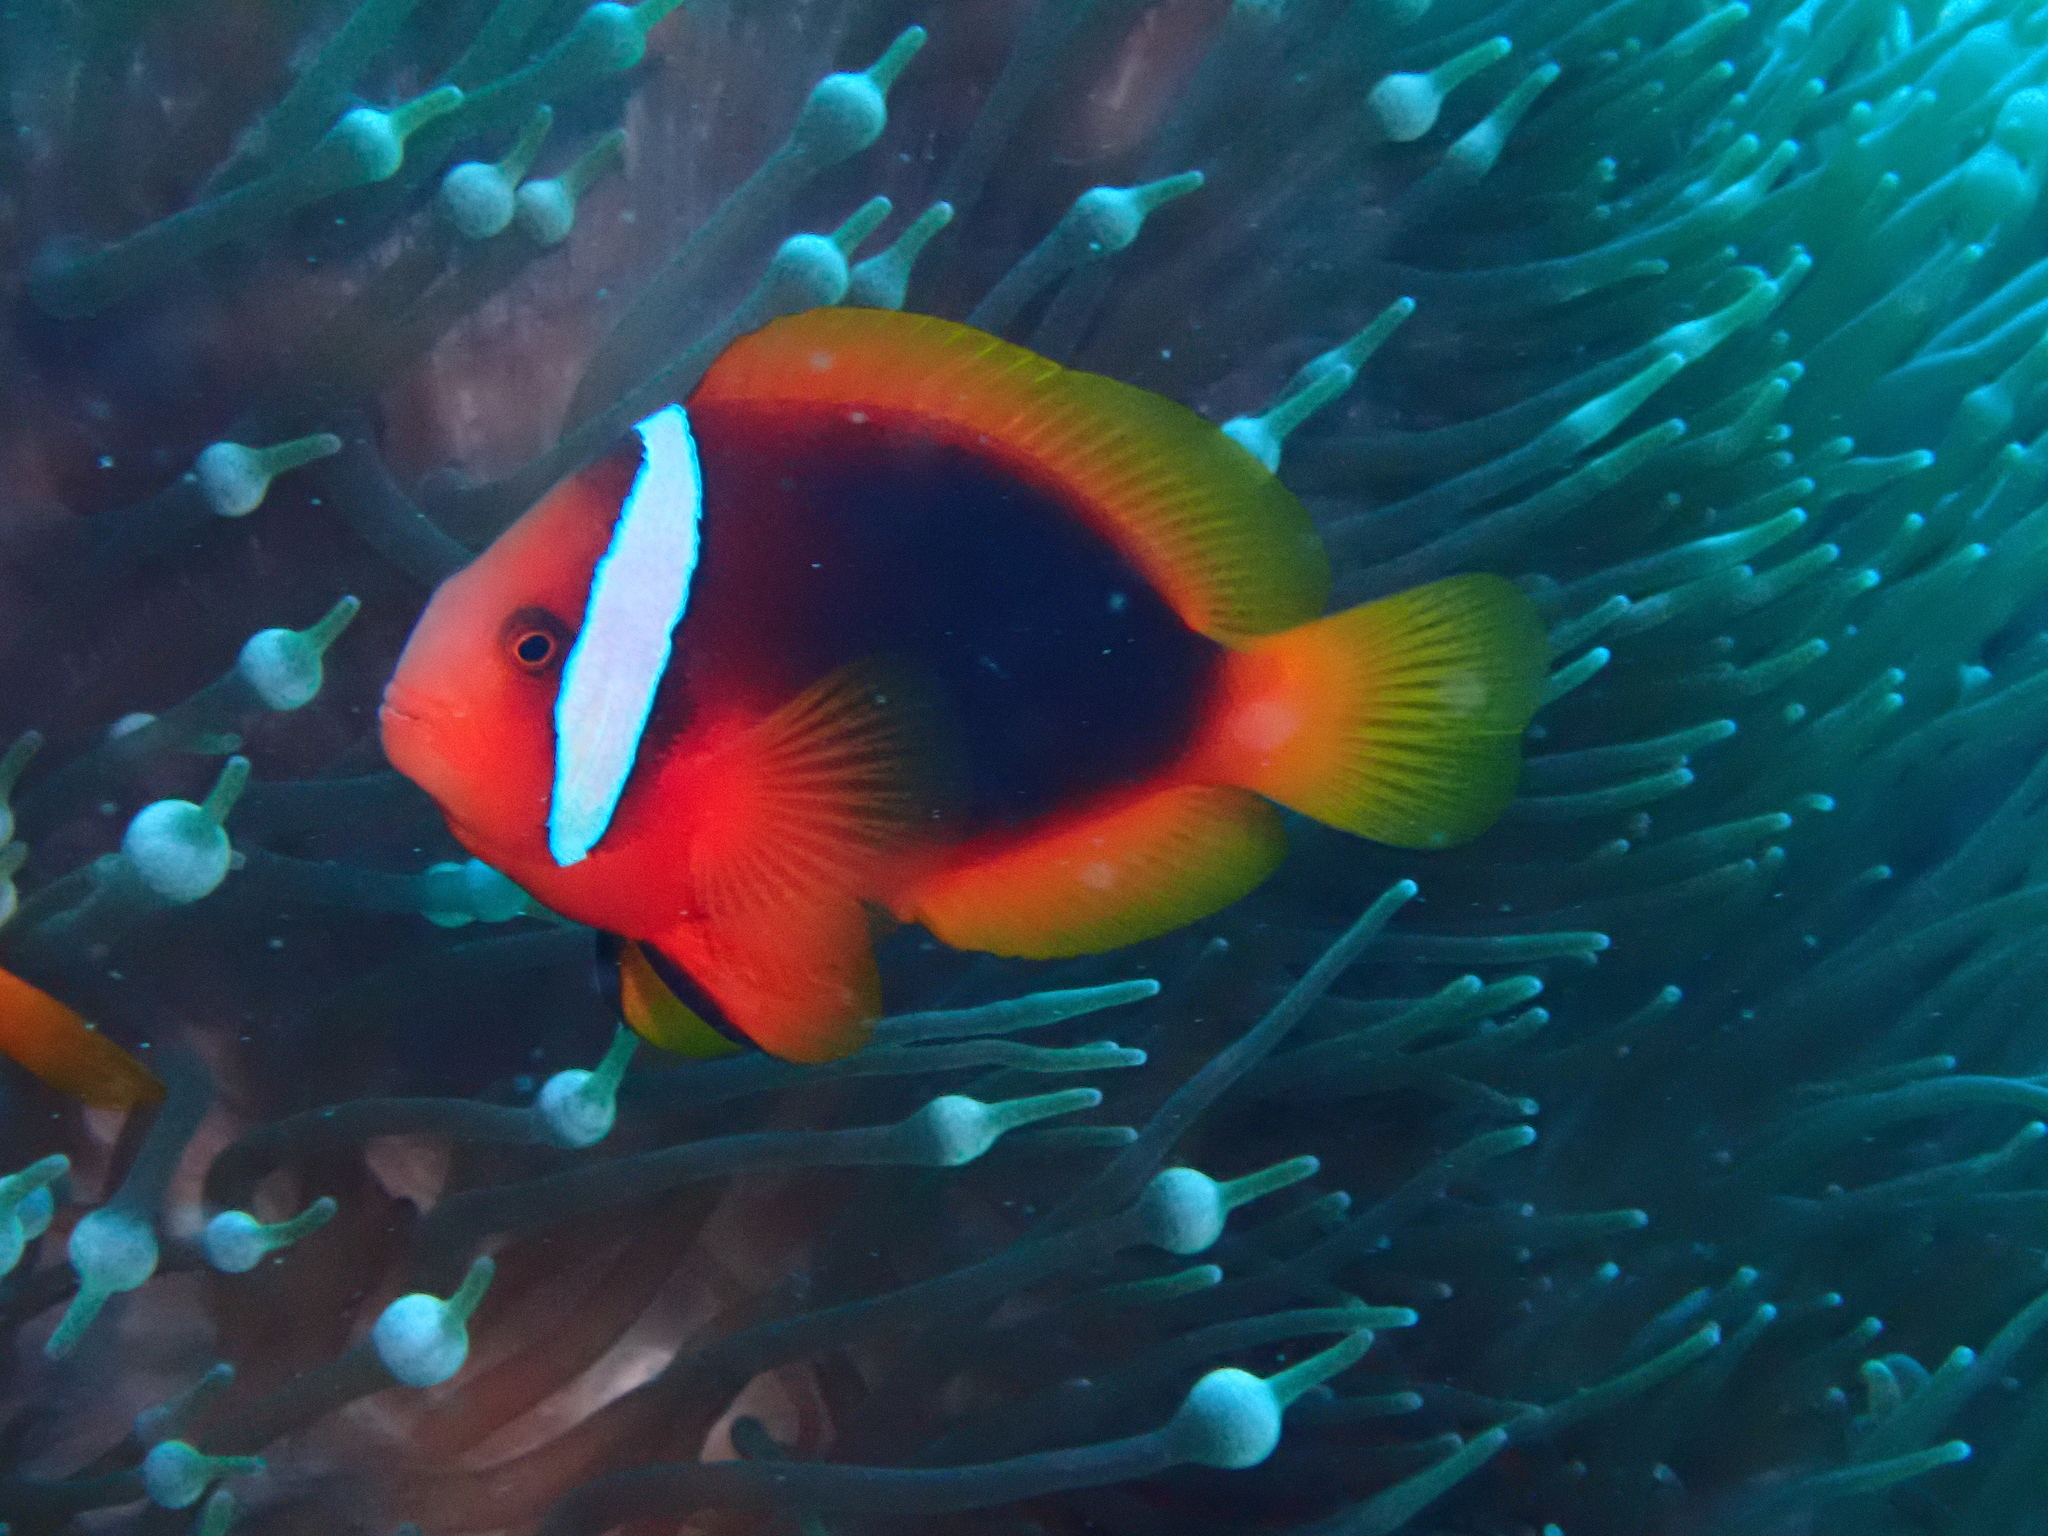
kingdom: Animalia
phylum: Chordata
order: Perciformes
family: Pomacentridae
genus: Amphiprion
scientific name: Amphiprion frenatus
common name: Tomato anemonefish
